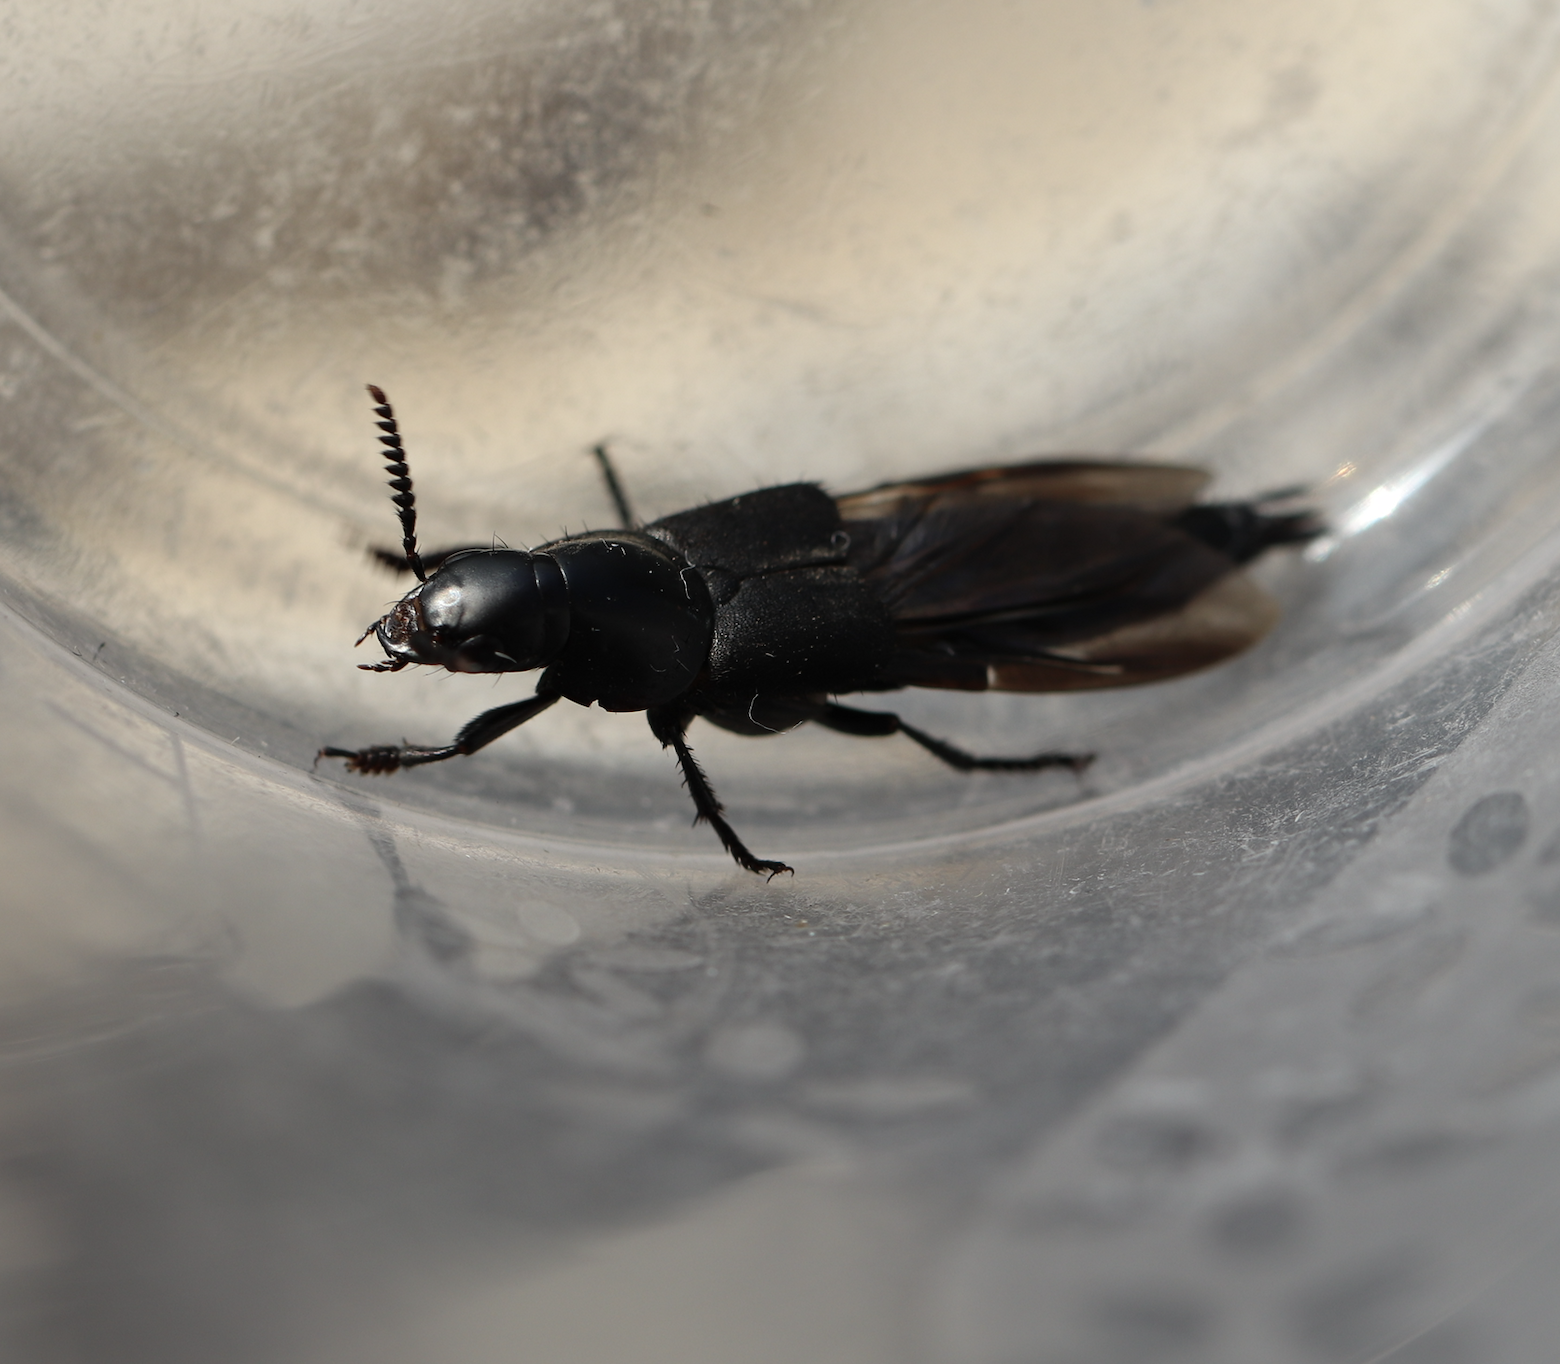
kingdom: Animalia
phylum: Arthropoda
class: Insecta
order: Coleoptera
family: Staphylinidae
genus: Quedius
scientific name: Quedius dilatatus
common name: Hornet rove-beetle
